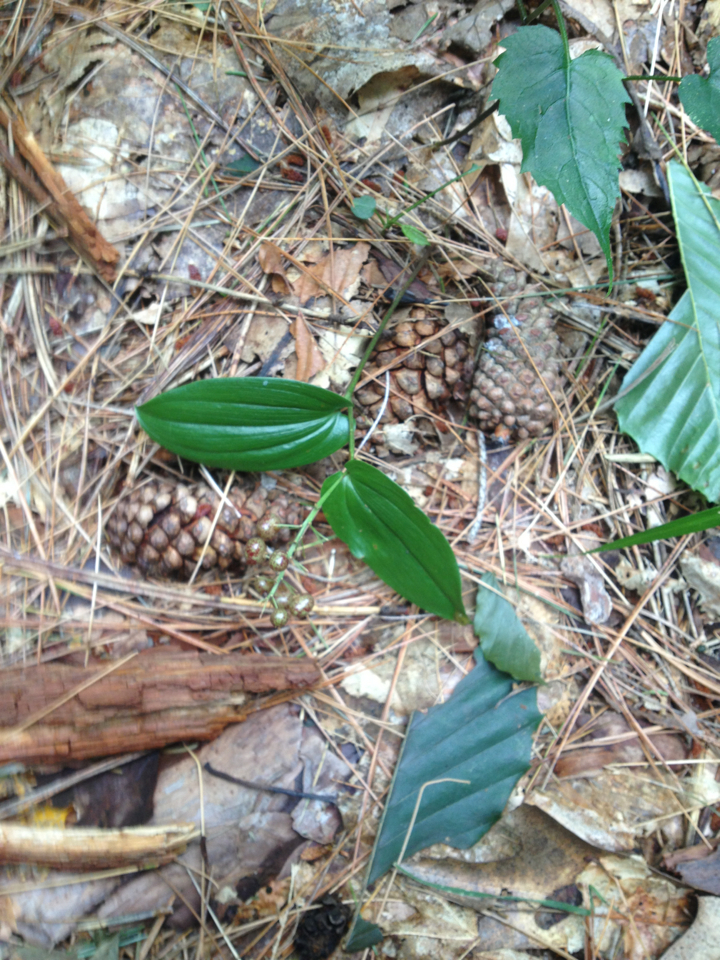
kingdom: Plantae
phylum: Tracheophyta
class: Liliopsida
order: Asparagales
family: Asparagaceae
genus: Maianthemum
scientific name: Maianthemum canadense
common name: False lily-of-the-valley
